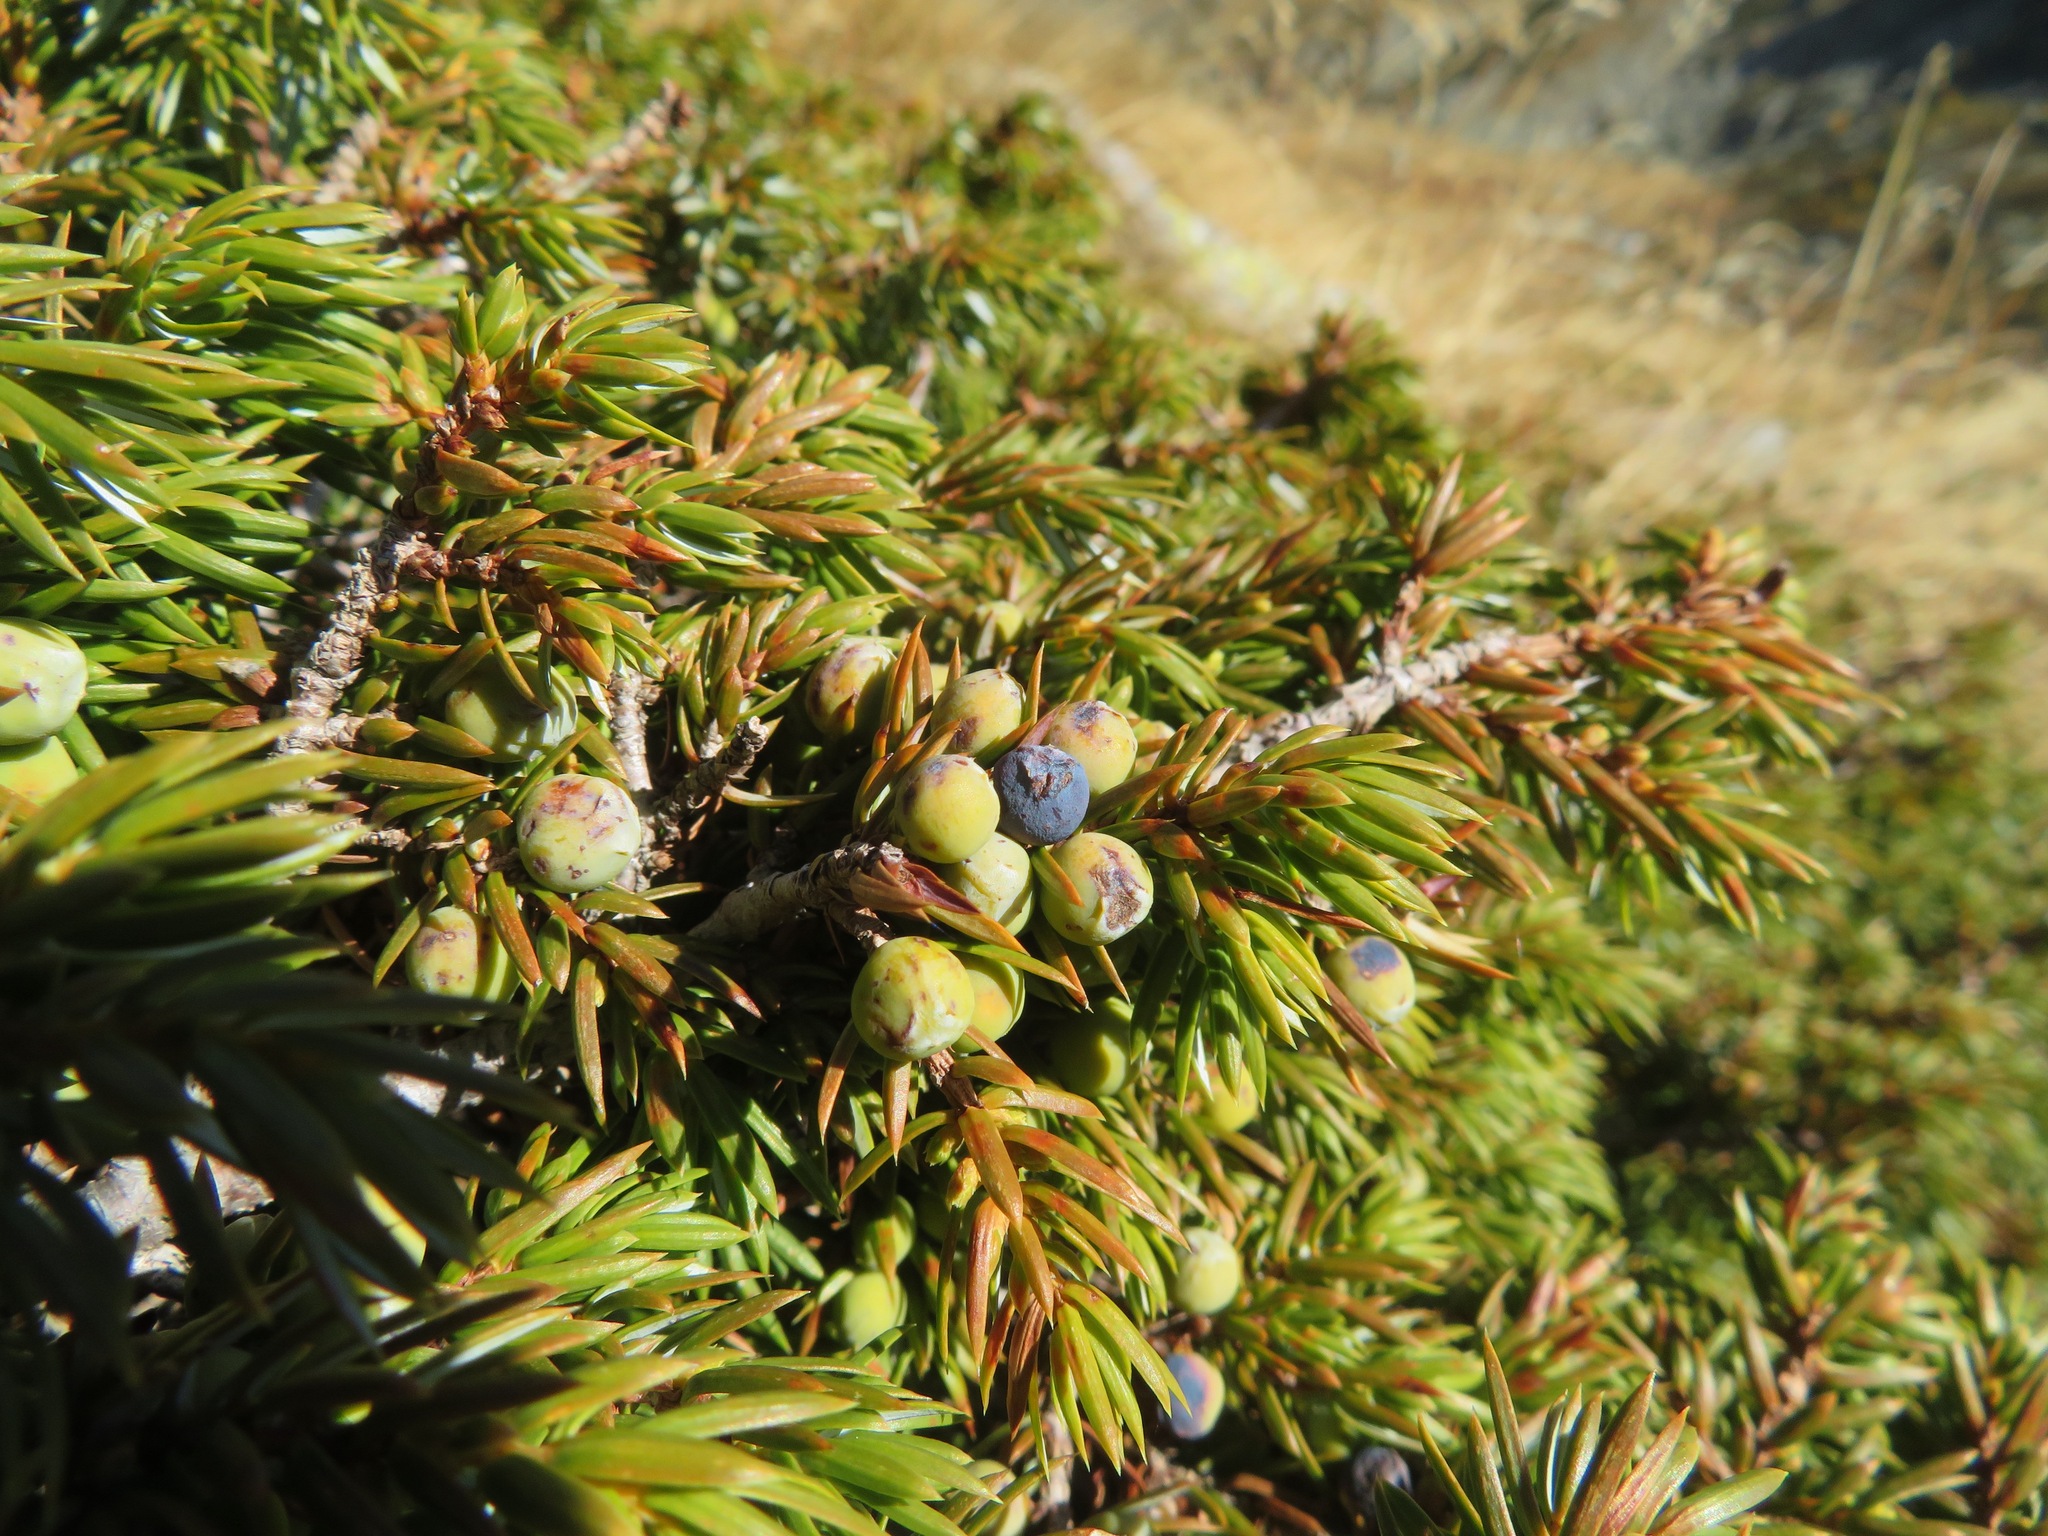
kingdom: Plantae
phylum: Tracheophyta
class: Pinopsida
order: Pinales
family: Cupressaceae
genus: Juniperus
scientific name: Juniperus communis
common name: Common juniper
